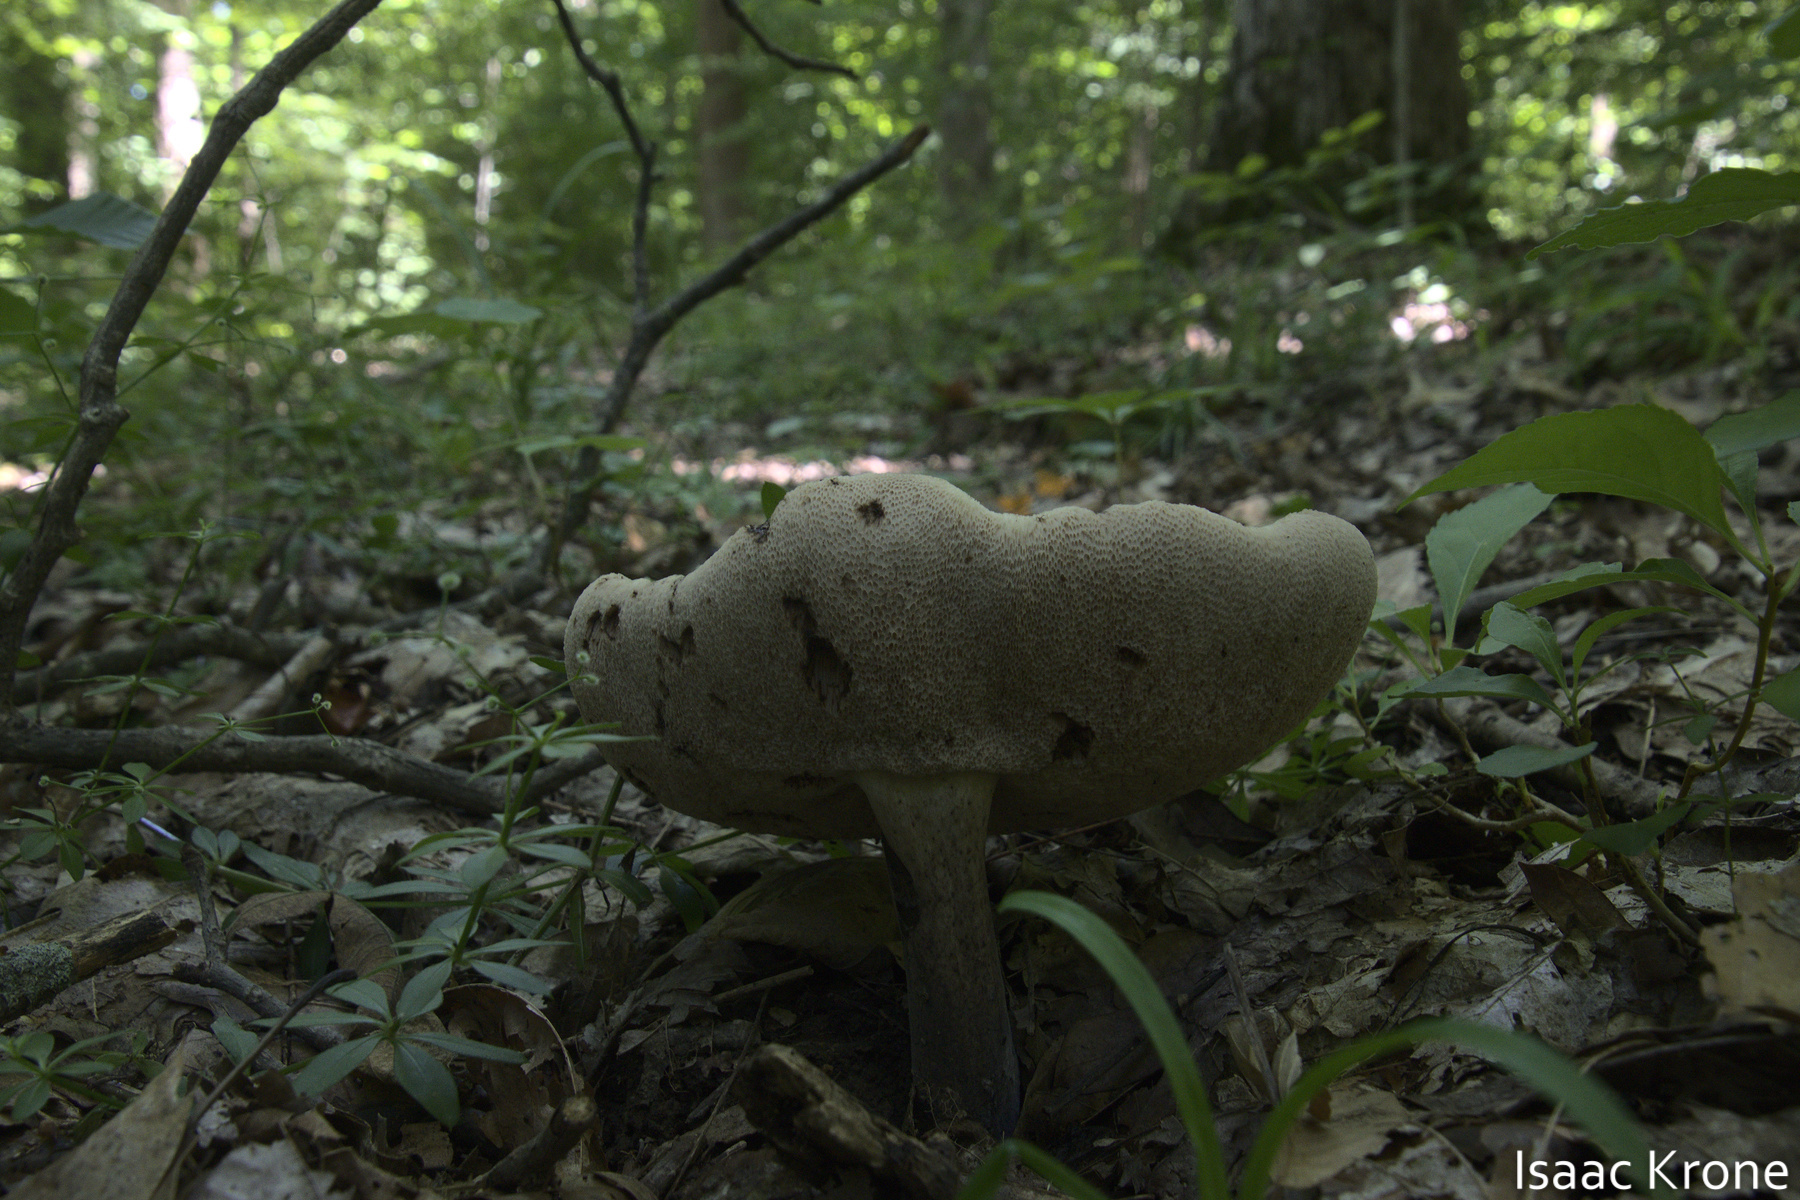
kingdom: Fungi
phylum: Basidiomycota
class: Agaricomycetes
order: Boletales
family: Boletaceae
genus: Tylopilus
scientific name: Tylopilus alboater
